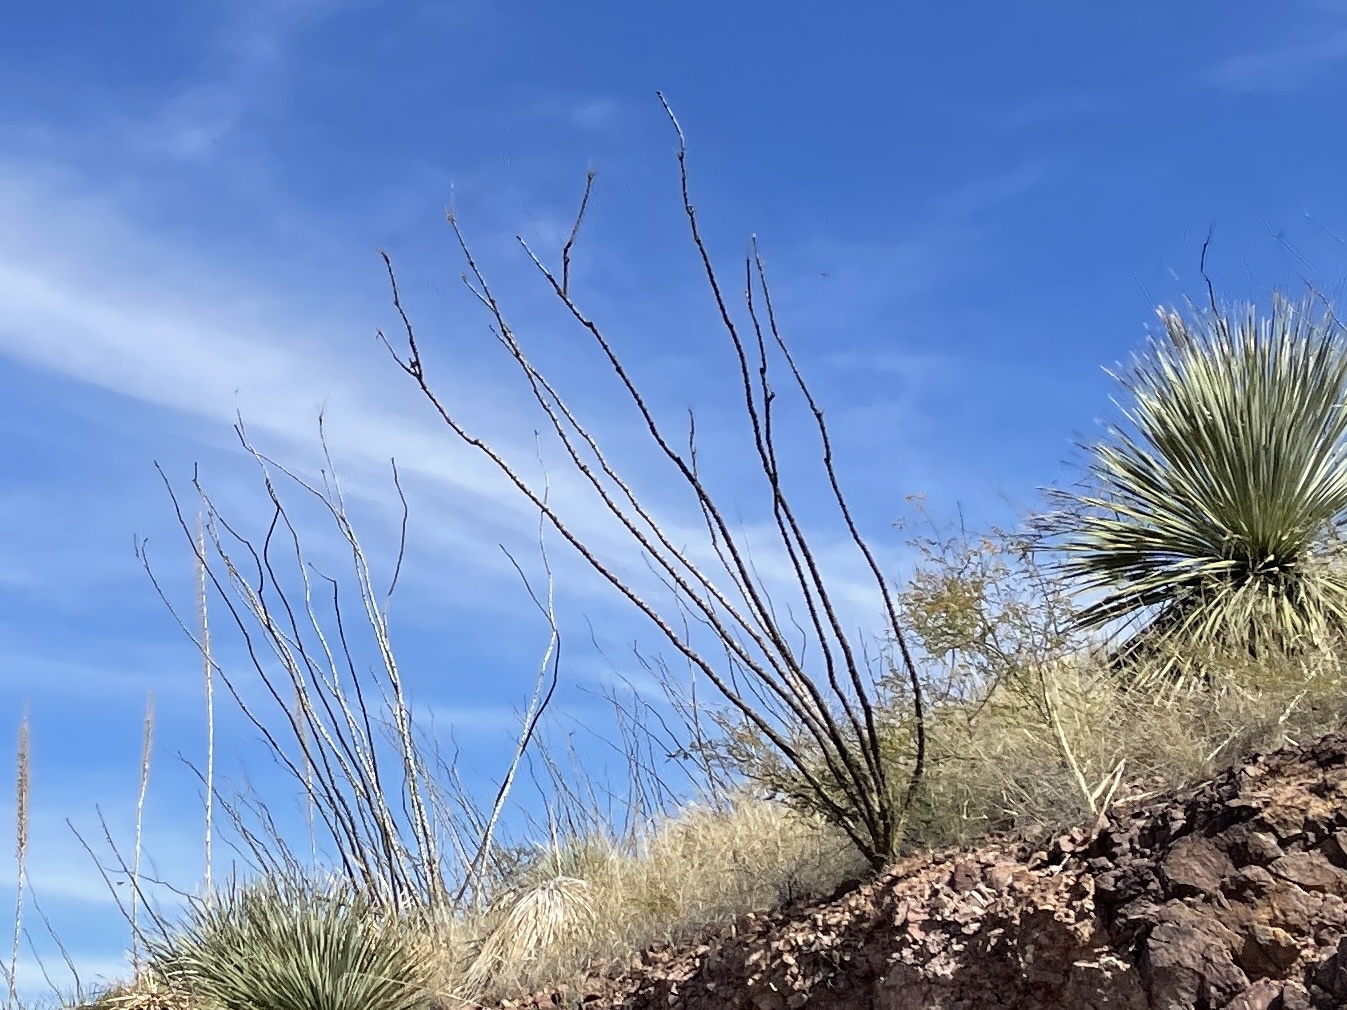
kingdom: Plantae
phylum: Tracheophyta
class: Magnoliopsida
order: Ericales
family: Fouquieriaceae
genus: Fouquieria
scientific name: Fouquieria splendens
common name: Vine-cactus
